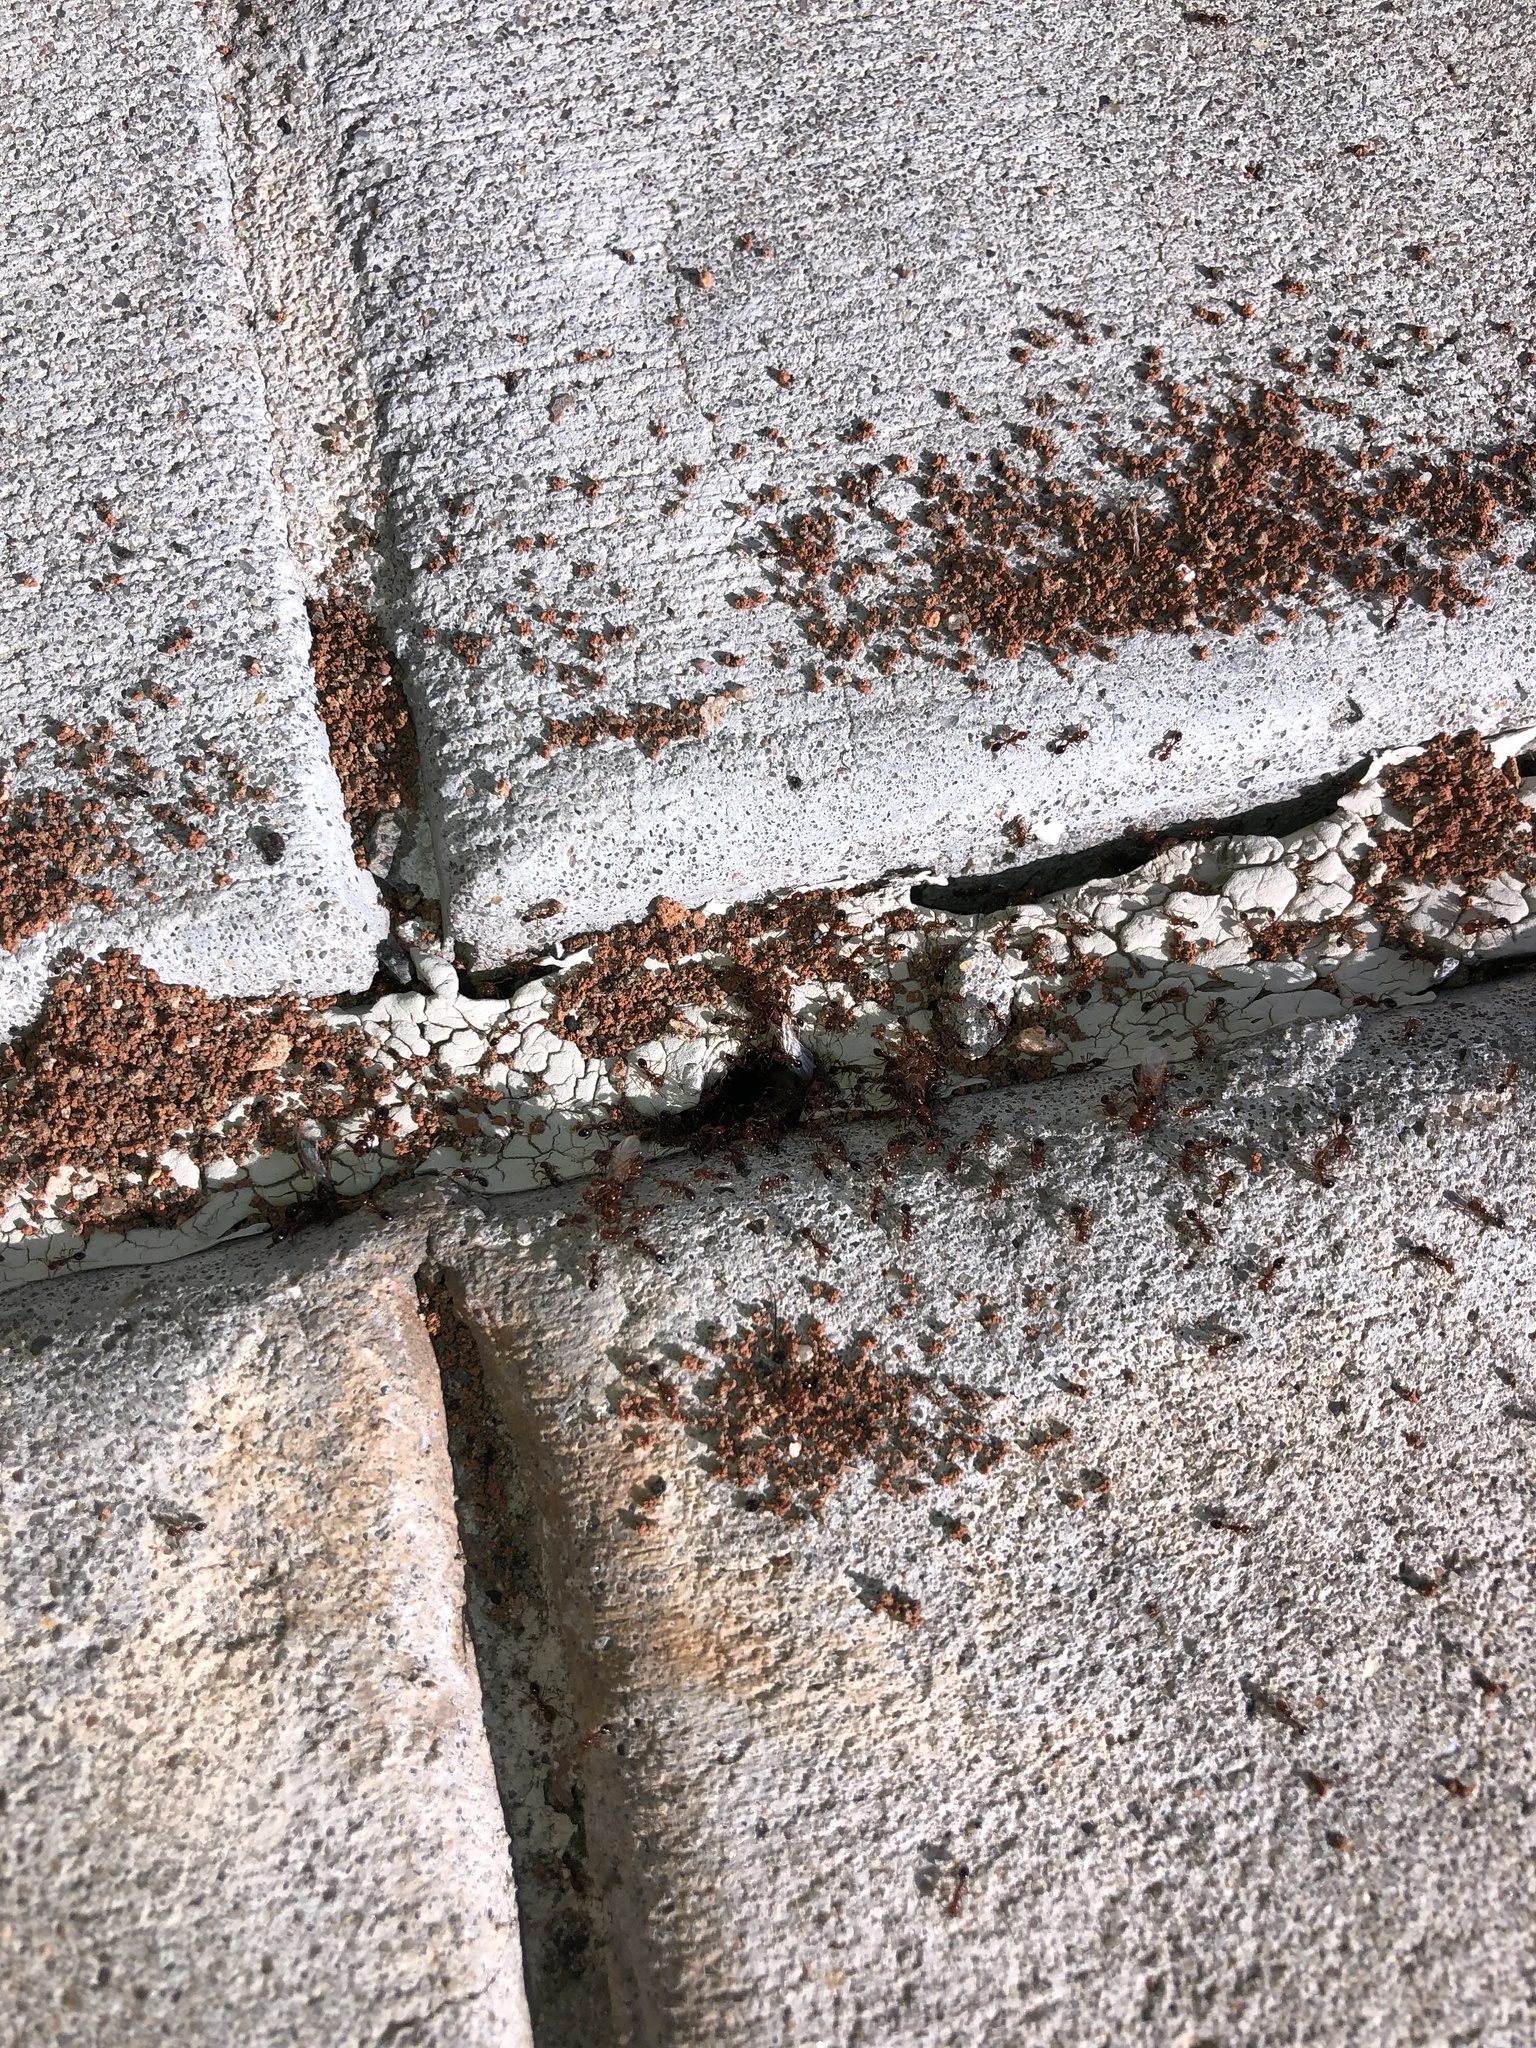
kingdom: Animalia
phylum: Arthropoda
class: Insecta
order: Hymenoptera
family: Formicidae
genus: Solenopsis
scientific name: Solenopsis invicta
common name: Red imported fire ant
